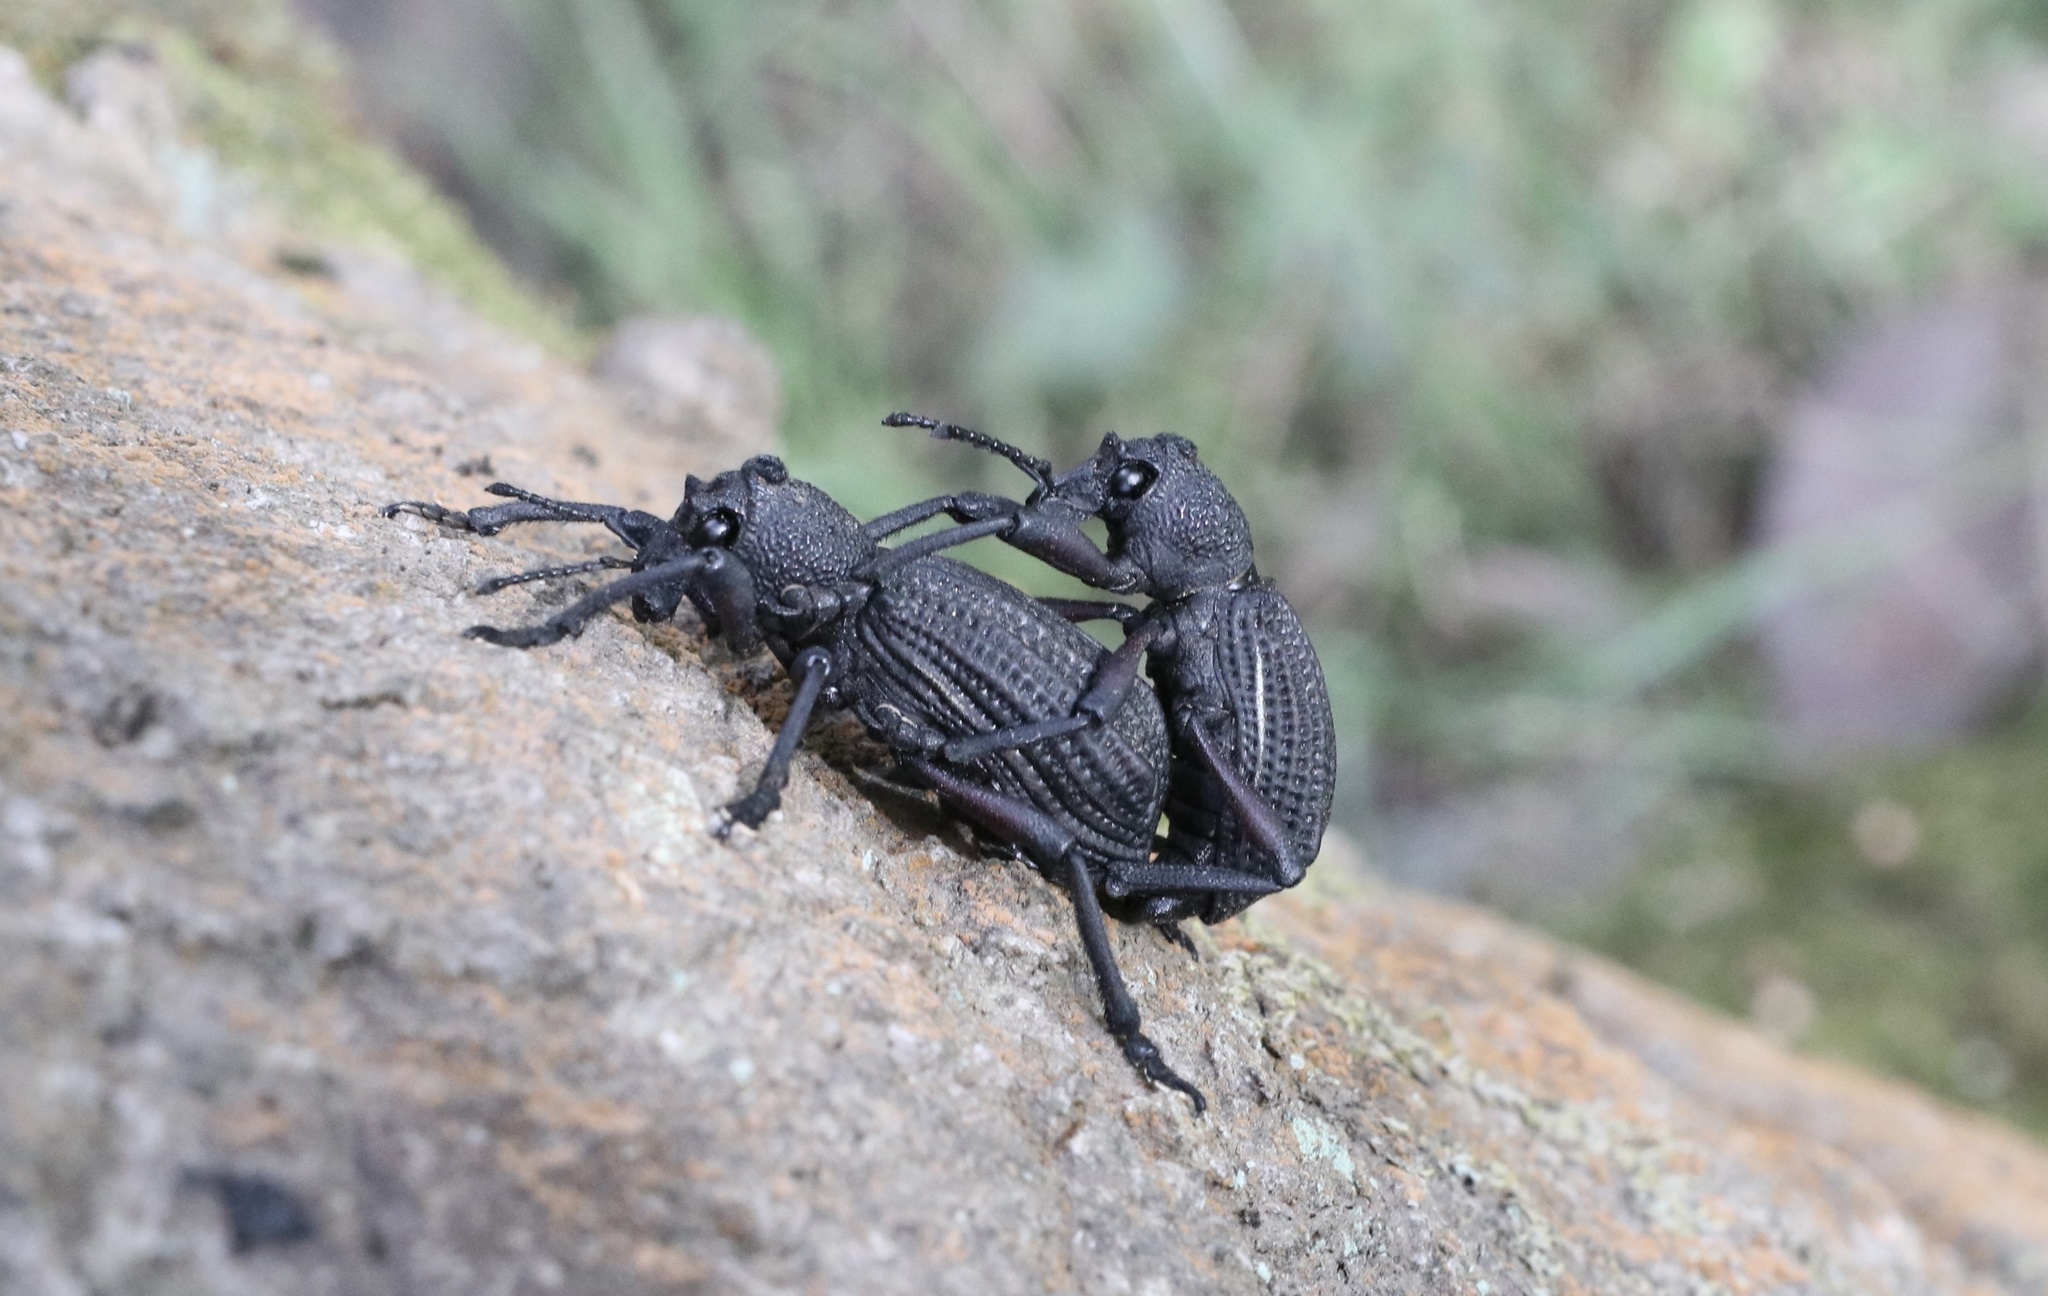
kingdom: Animalia
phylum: Arthropoda
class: Insecta
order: Coleoptera
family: Curculionidae
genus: Aegorhinus
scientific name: Aegorhinus
